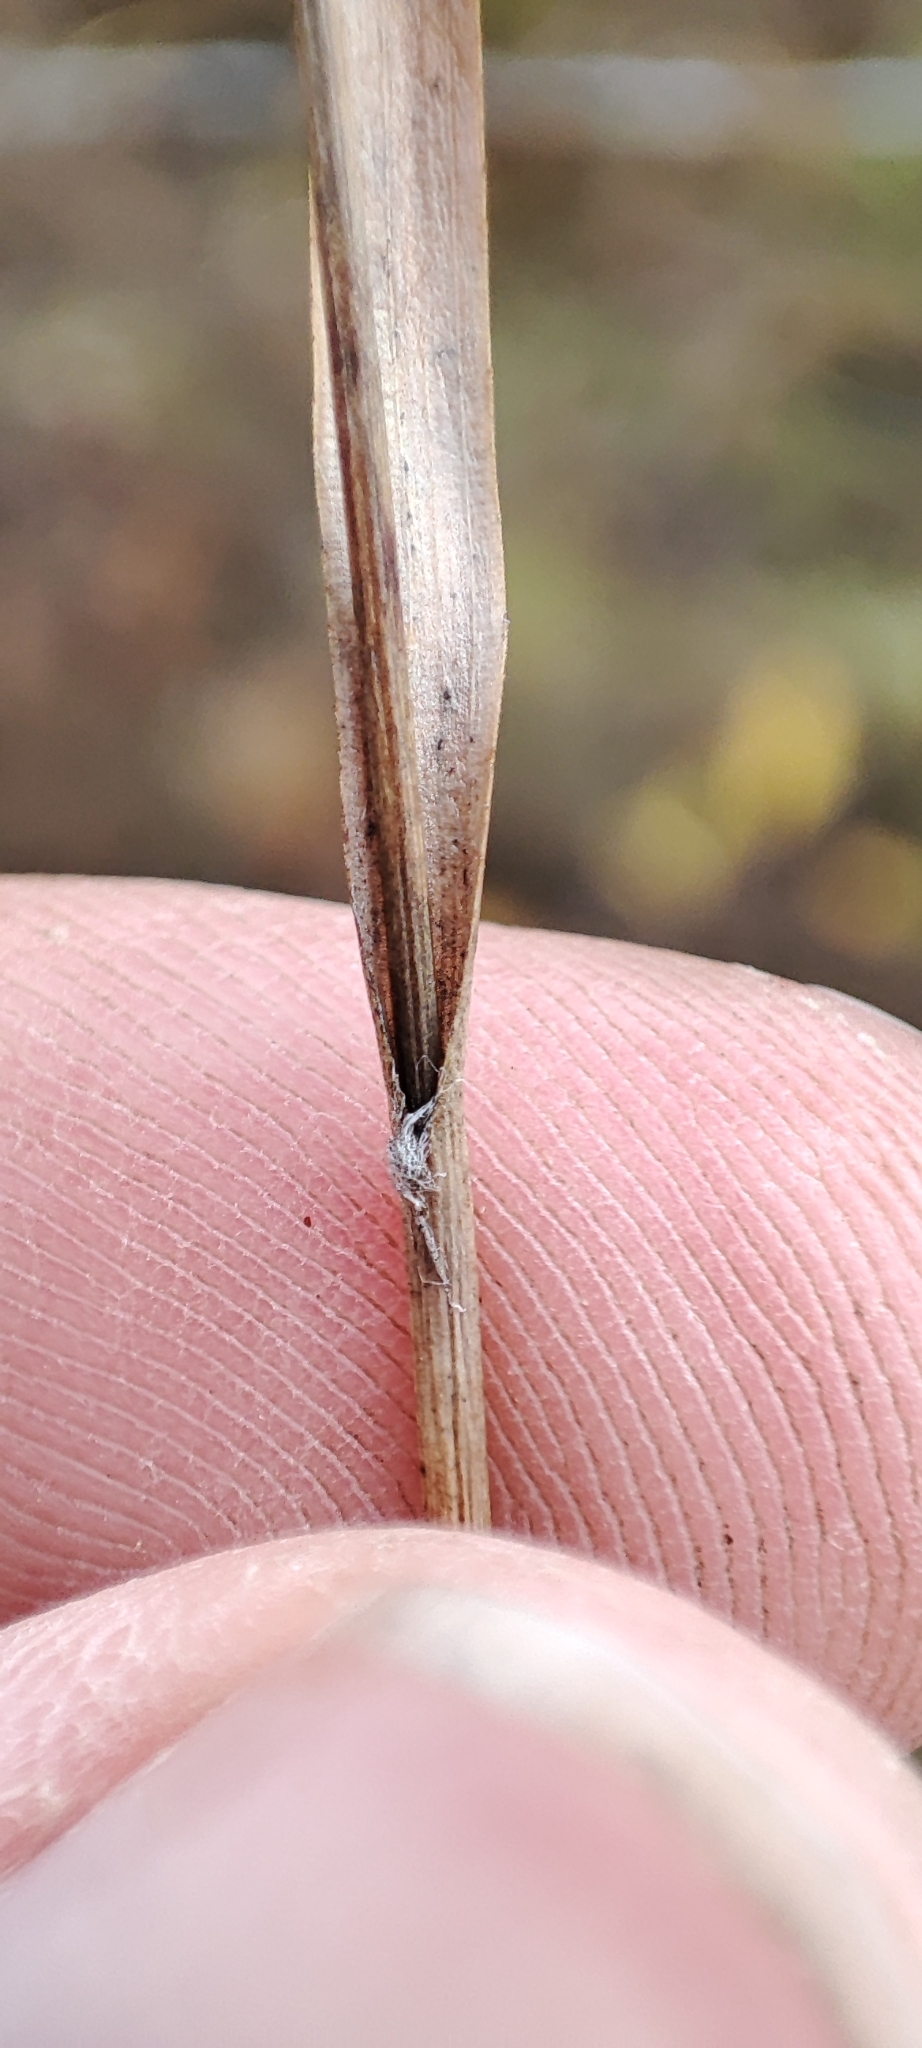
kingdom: Plantae
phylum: Tracheophyta
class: Liliopsida
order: Poales
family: Juncaceae
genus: Luzula
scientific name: Luzula multiflora
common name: Heath wood-rush
